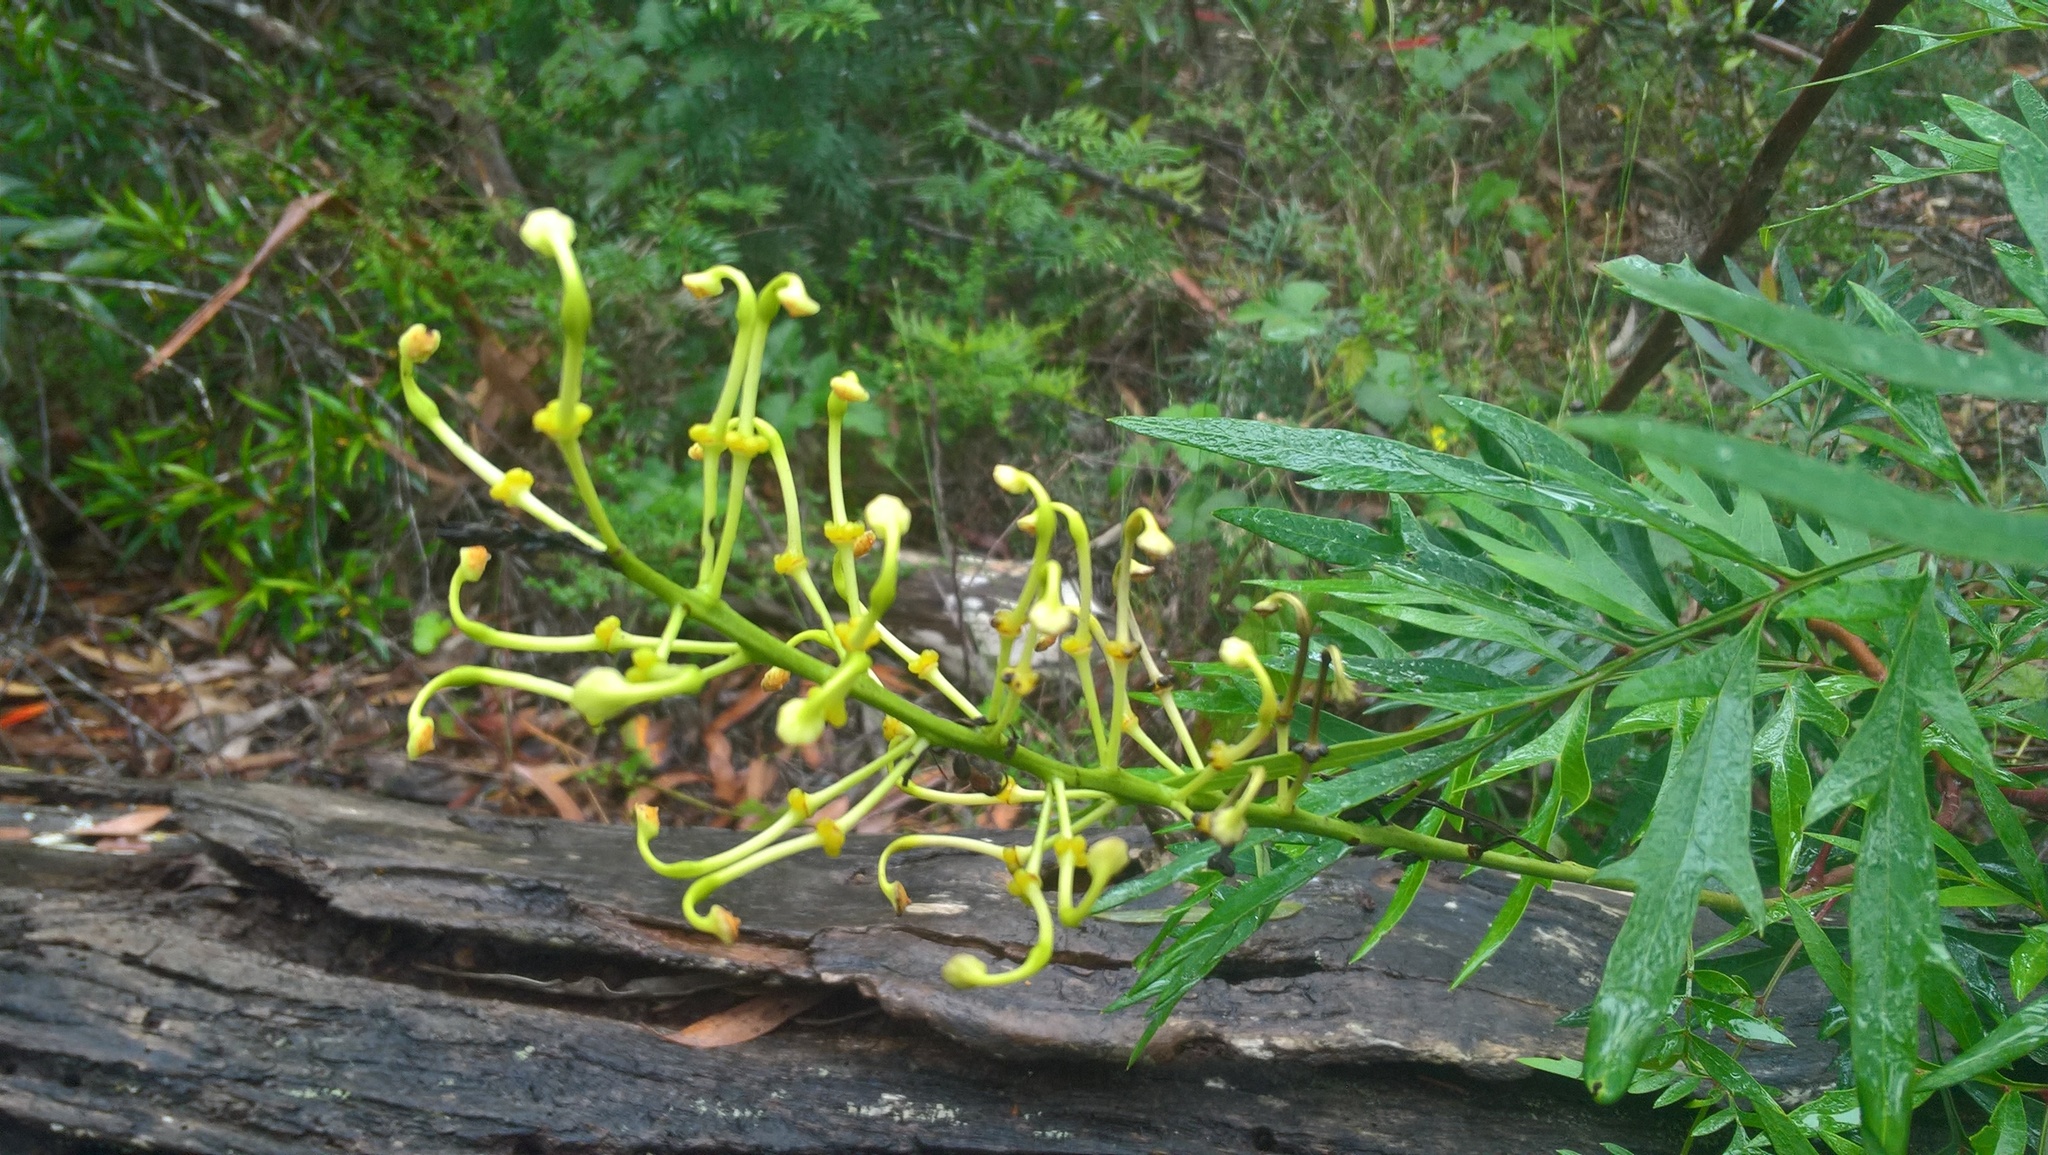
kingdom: Plantae
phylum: Tracheophyta
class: Magnoliopsida
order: Proteales
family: Proteaceae
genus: Lomatia
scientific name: Lomatia silaifolia
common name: Crinklebush
